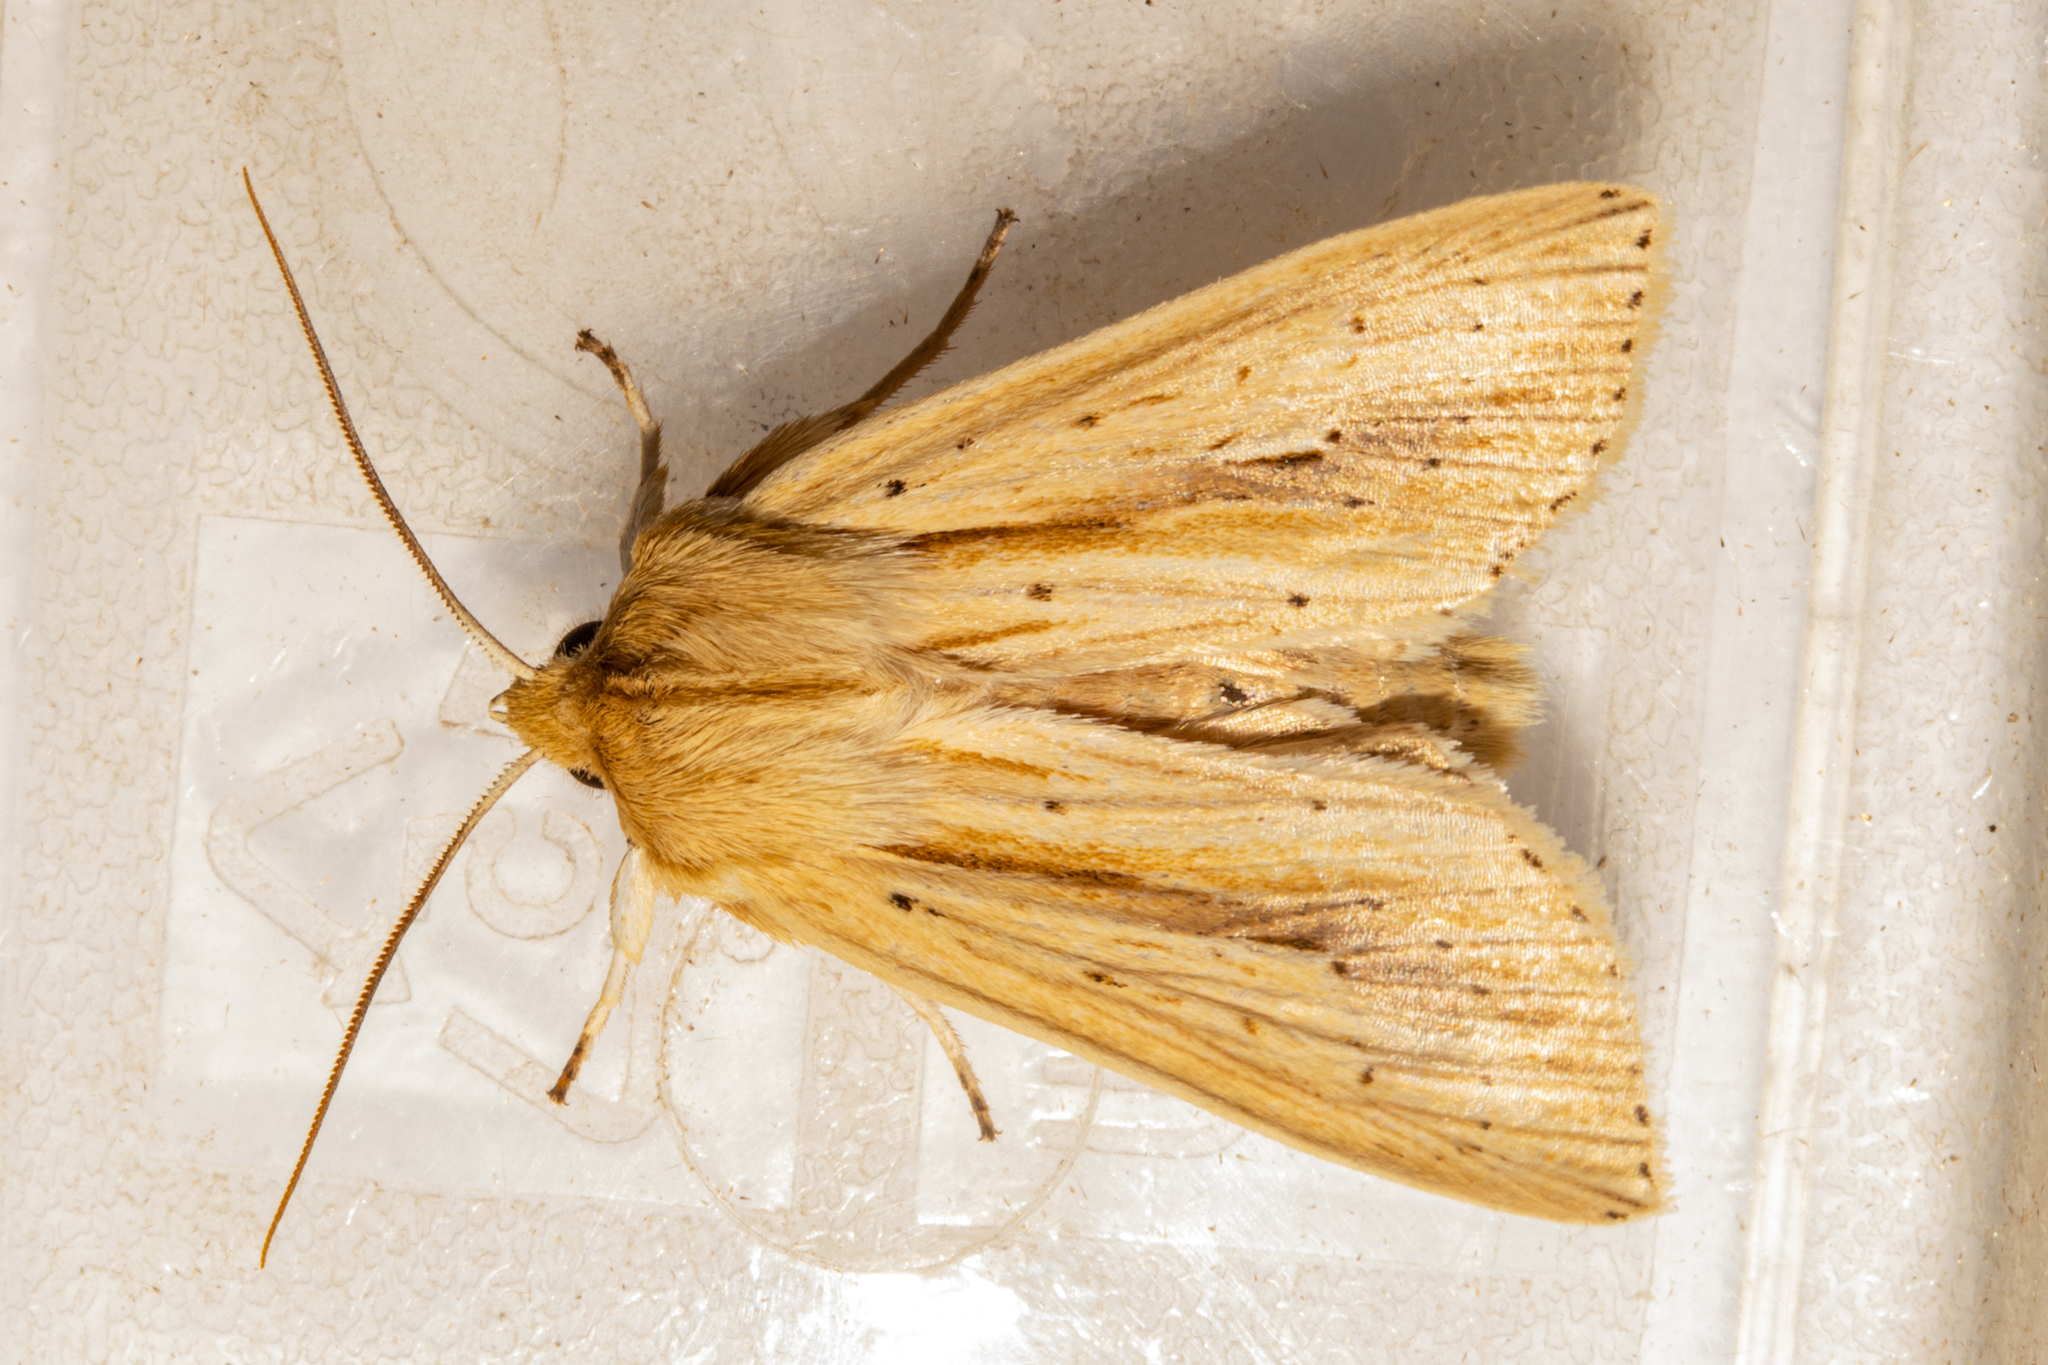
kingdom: Animalia
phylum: Arthropoda
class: Insecta
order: Lepidoptera
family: Noctuidae
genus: Ichneutica
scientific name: Ichneutica semivittata
